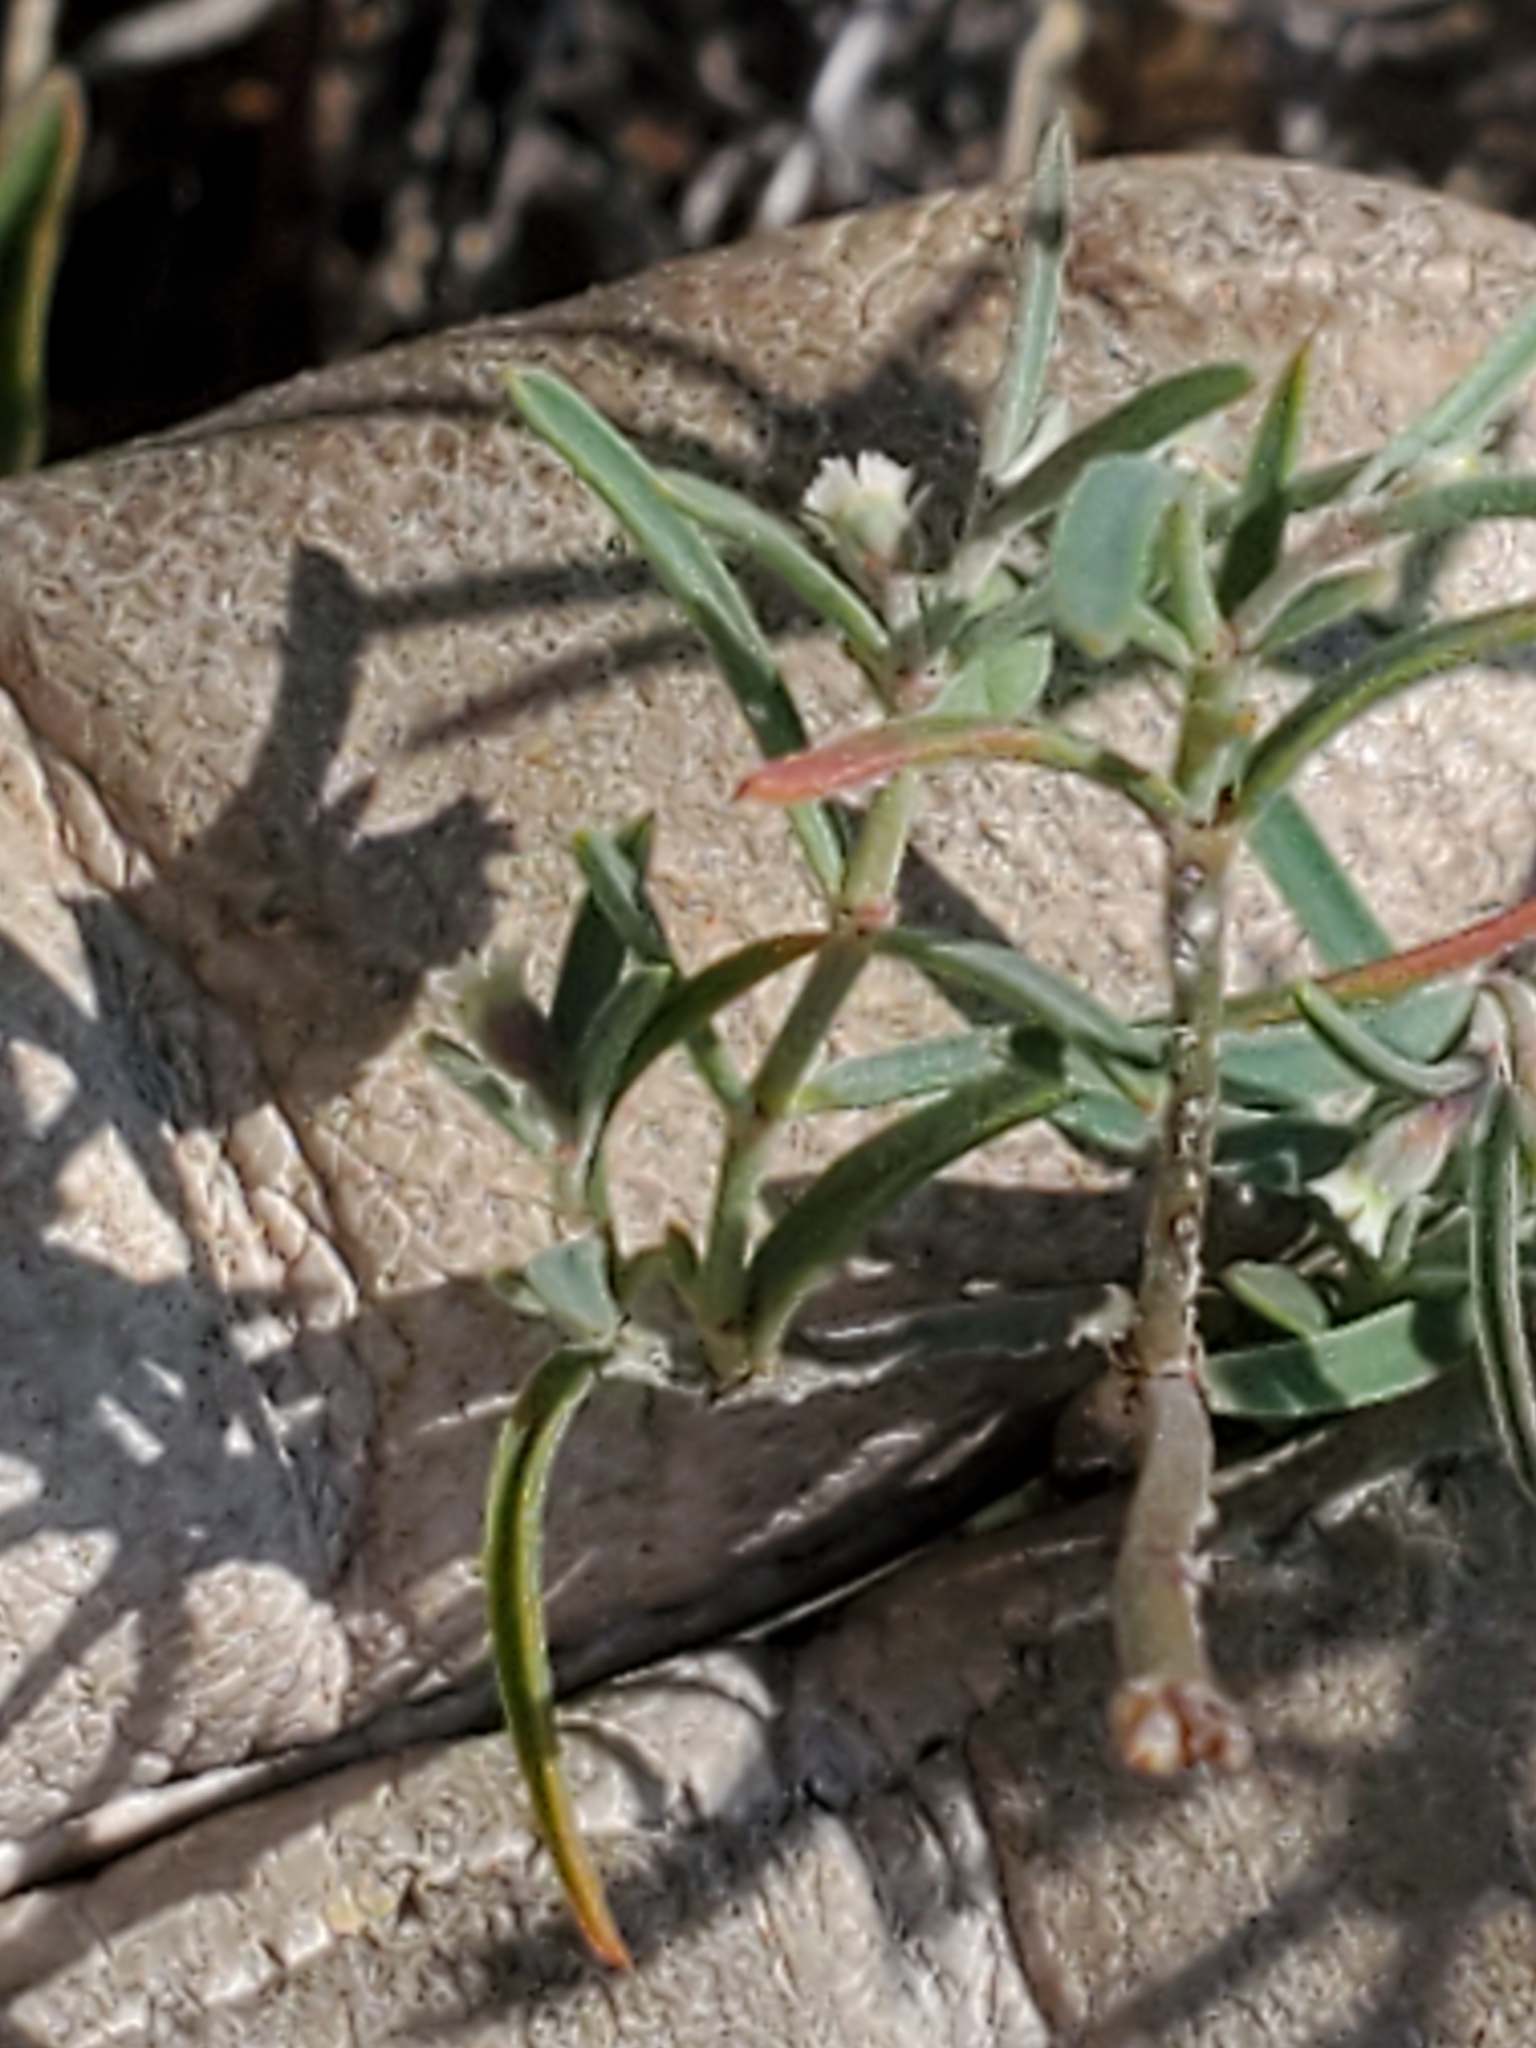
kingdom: Plantae
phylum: Tracheophyta
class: Magnoliopsida
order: Malpighiales
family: Euphorbiaceae
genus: Euphorbia
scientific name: Euphorbia angusta
